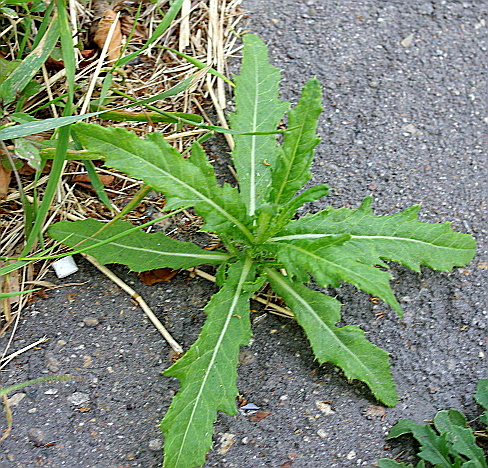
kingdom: Plantae
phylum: Tracheophyta
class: Magnoliopsida
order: Asterales
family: Asteraceae
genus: Cirsium
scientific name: Cirsium arvense
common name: Creeping thistle
